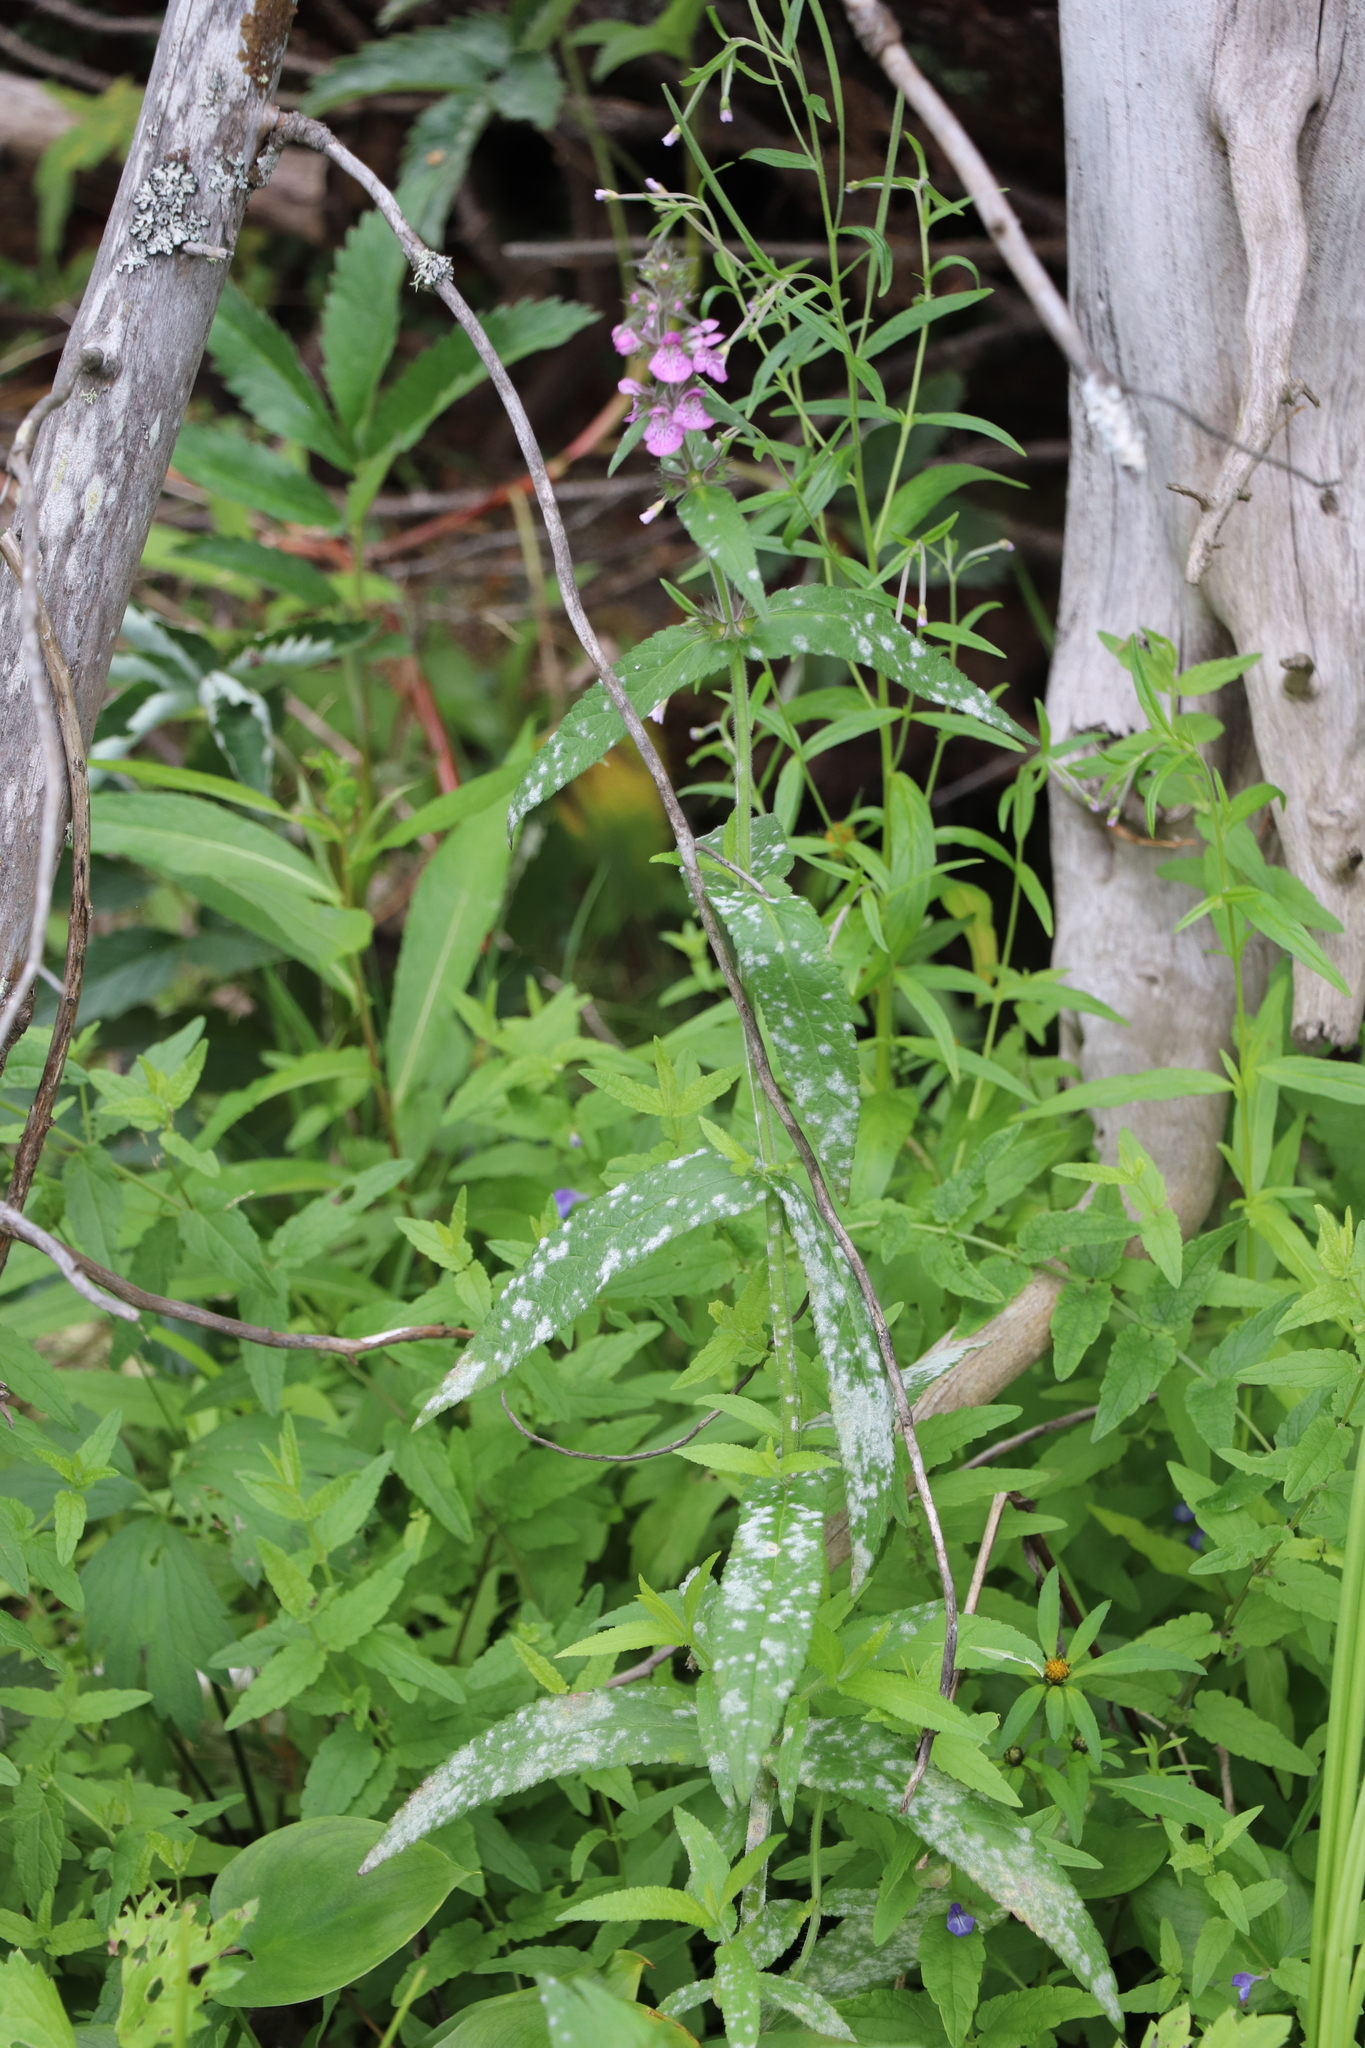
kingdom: Plantae
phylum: Tracheophyta
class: Magnoliopsida
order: Lamiales
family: Lamiaceae
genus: Stachys
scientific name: Stachys palustris
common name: Marsh woundwort
